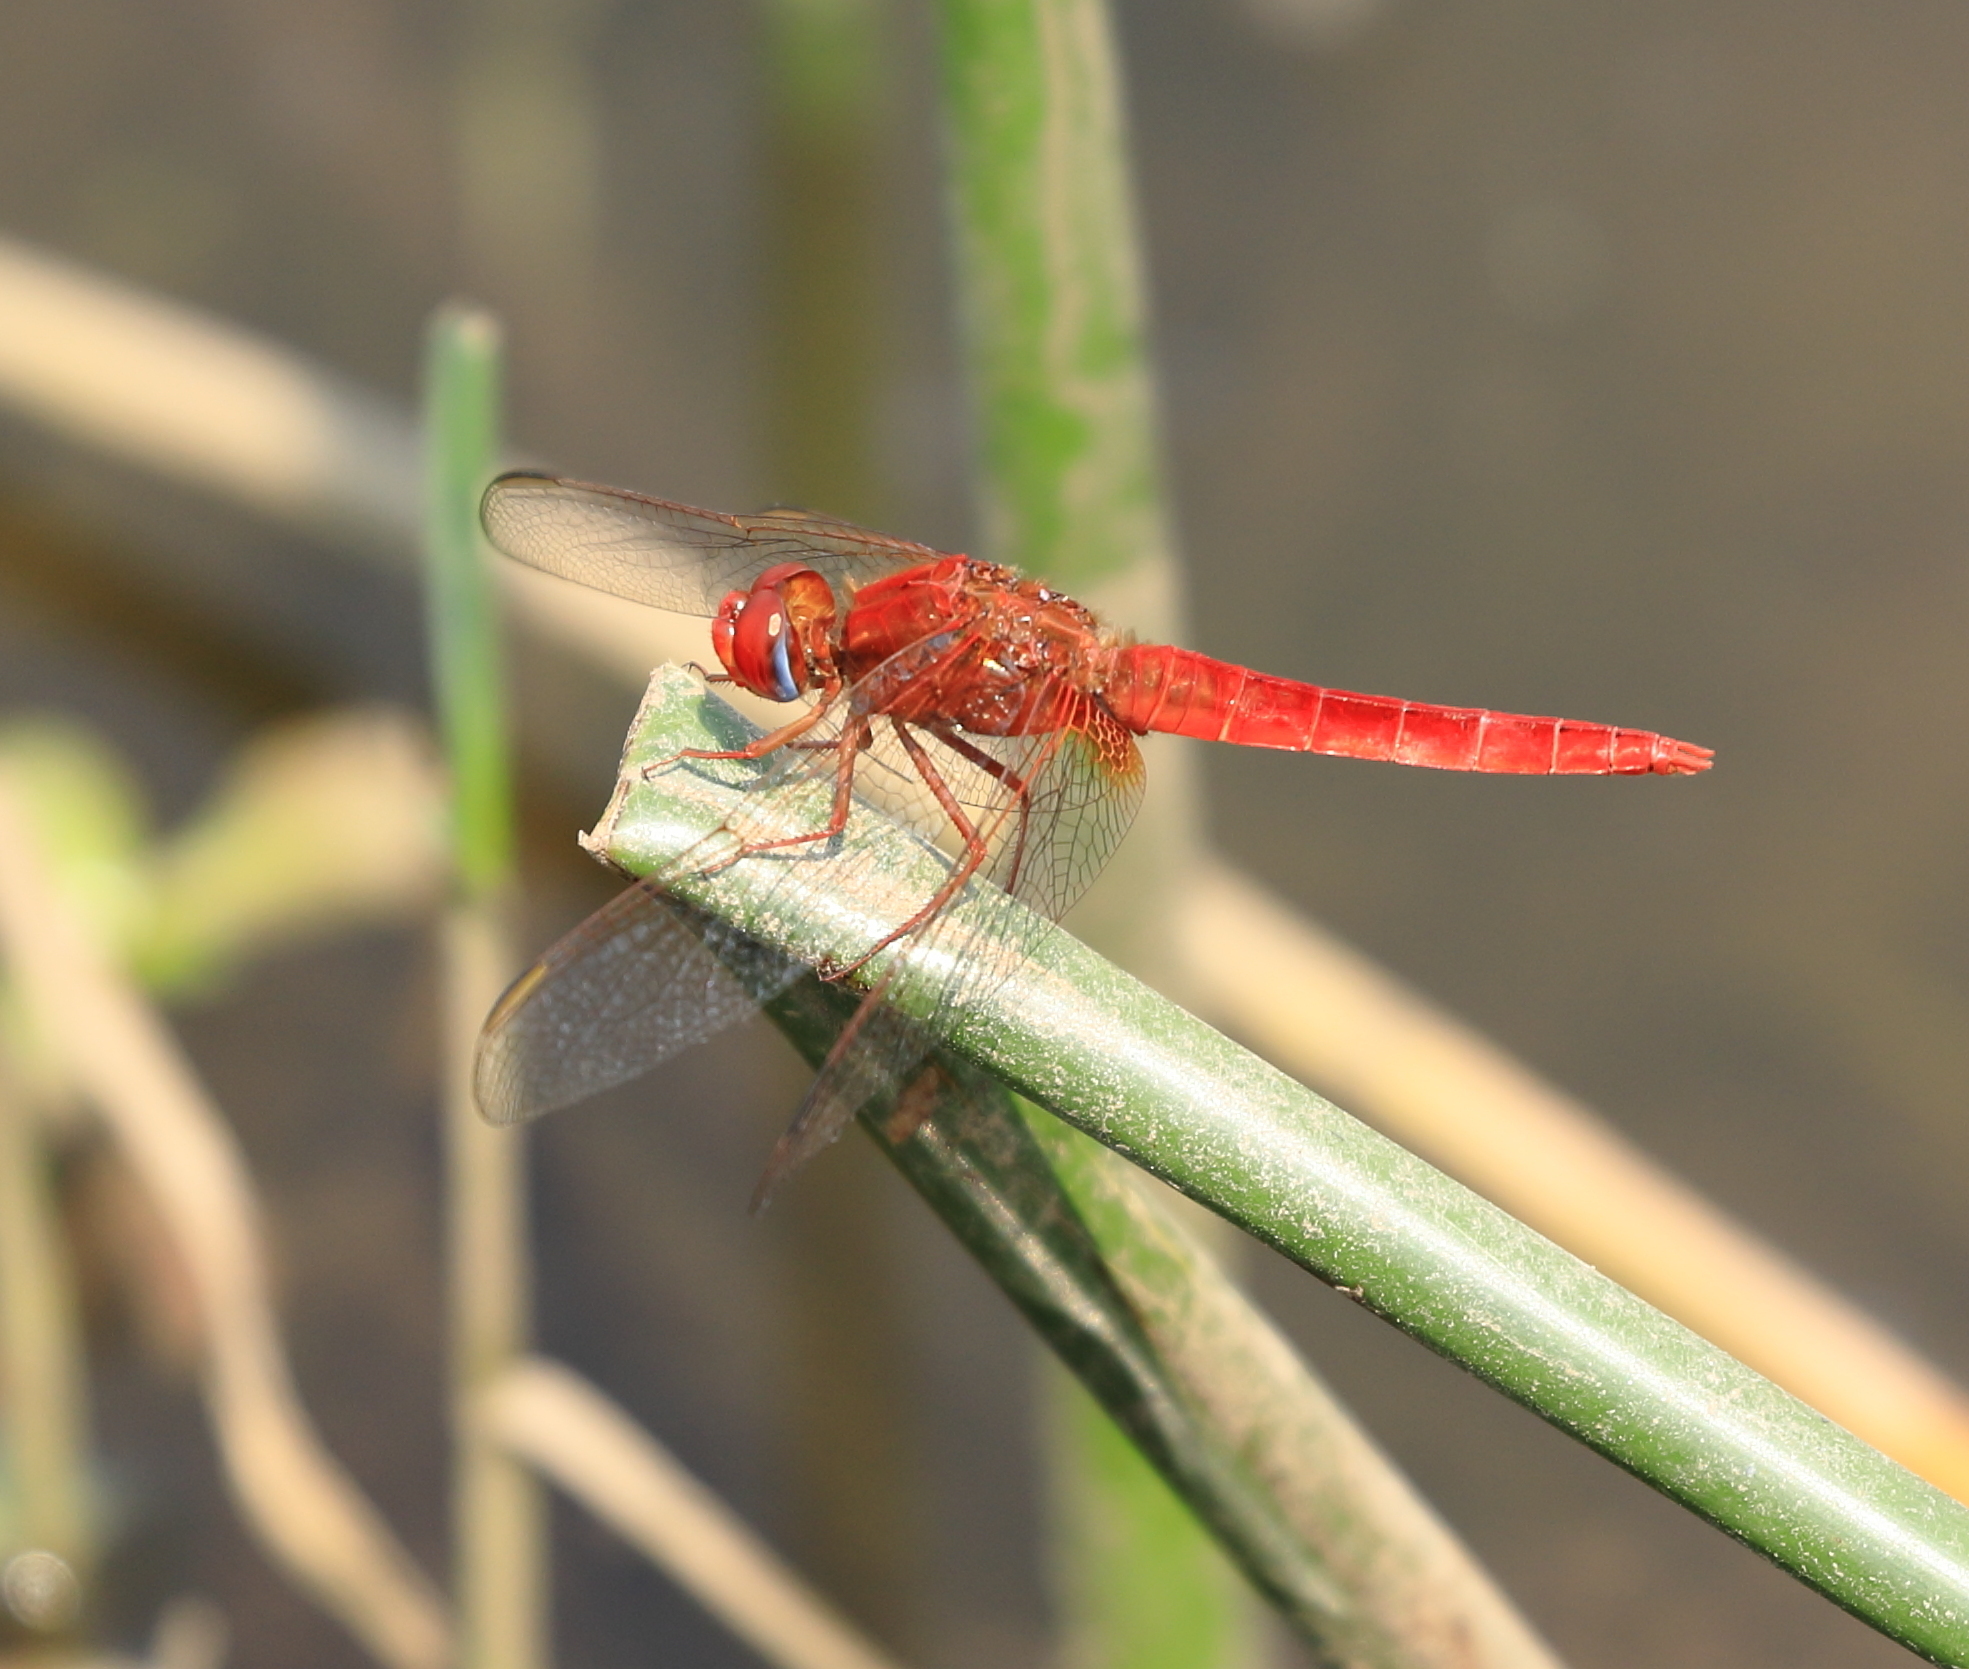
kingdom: Animalia
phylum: Arthropoda
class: Insecta
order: Odonata
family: Libellulidae
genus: Crocothemis
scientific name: Crocothemis erythraea
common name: Scarlet dragonfly
